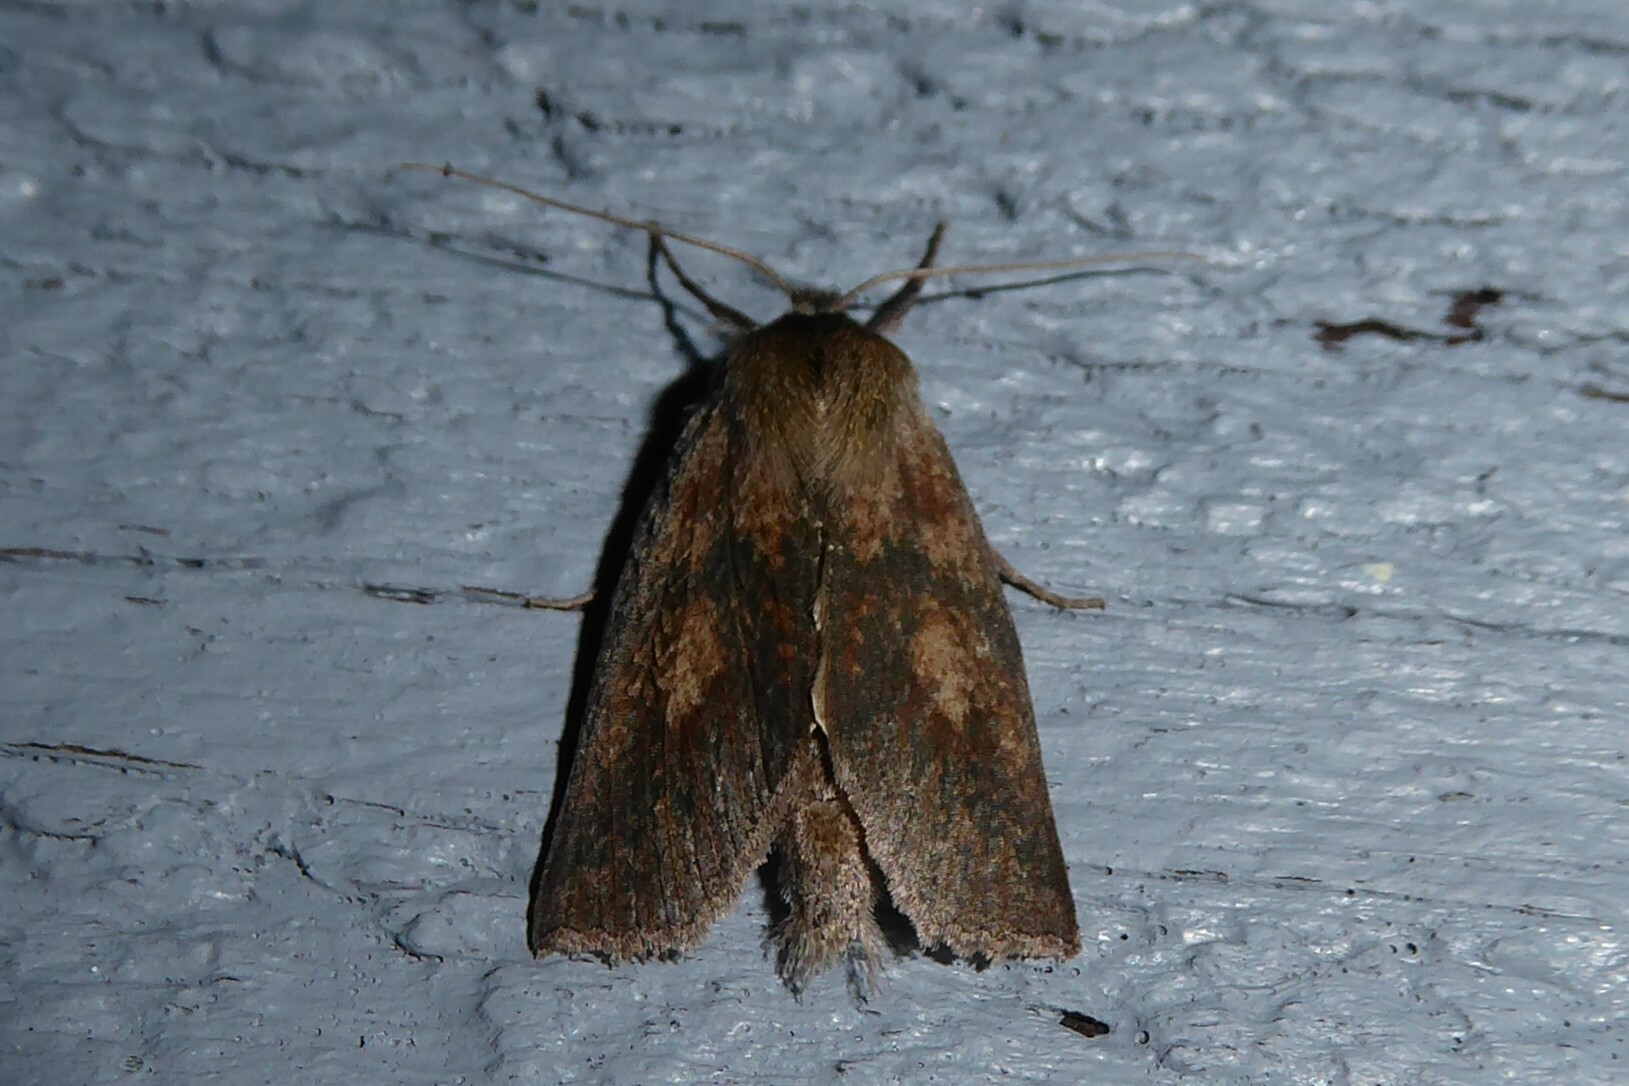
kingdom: Animalia
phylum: Arthropoda
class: Insecta
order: Lepidoptera
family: Geometridae
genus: Declana
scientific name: Declana leptomera
